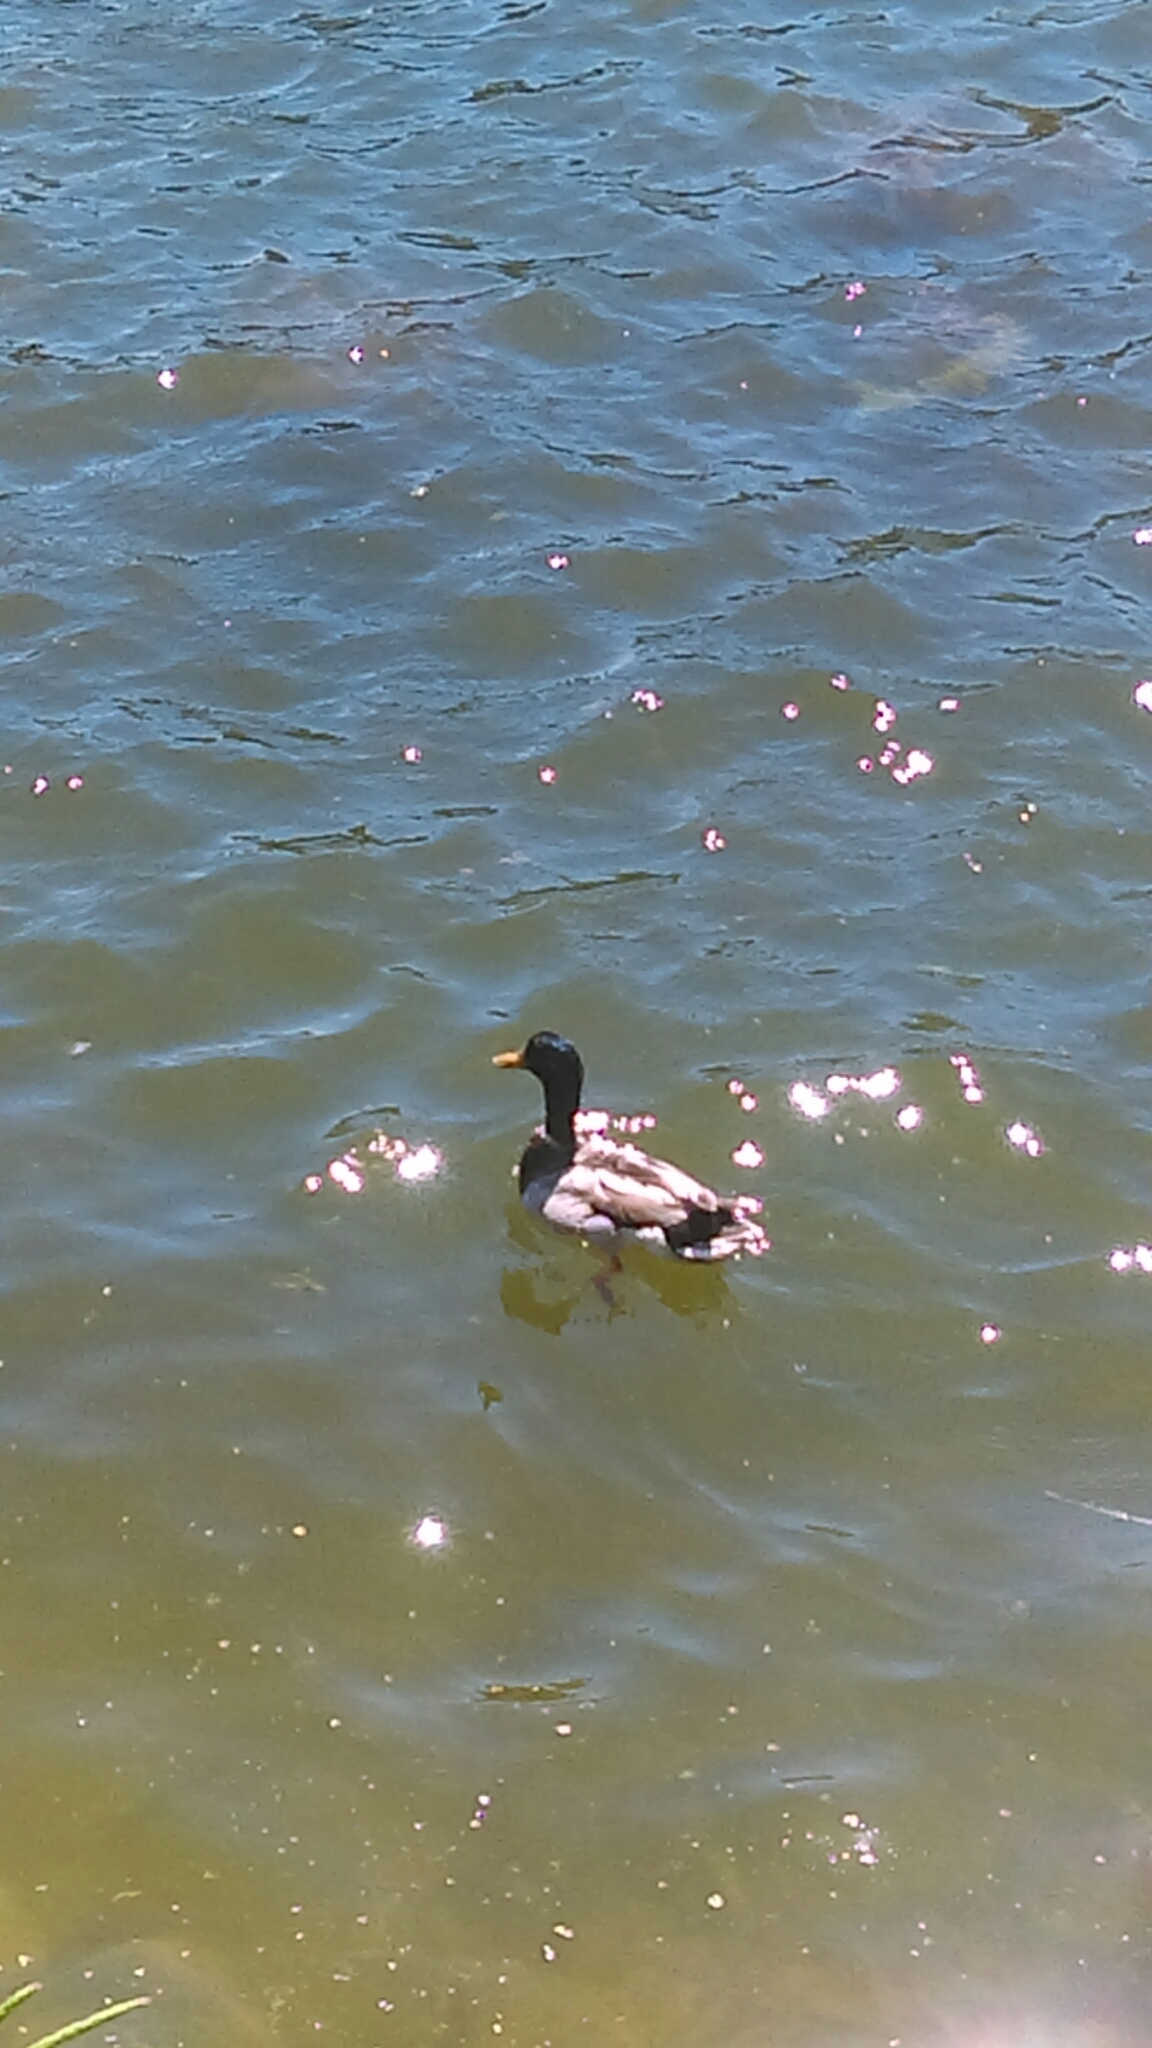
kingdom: Animalia
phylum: Chordata
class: Aves
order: Anseriformes
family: Anatidae
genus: Anas
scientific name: Anas platyrhynchos
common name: Mallard
